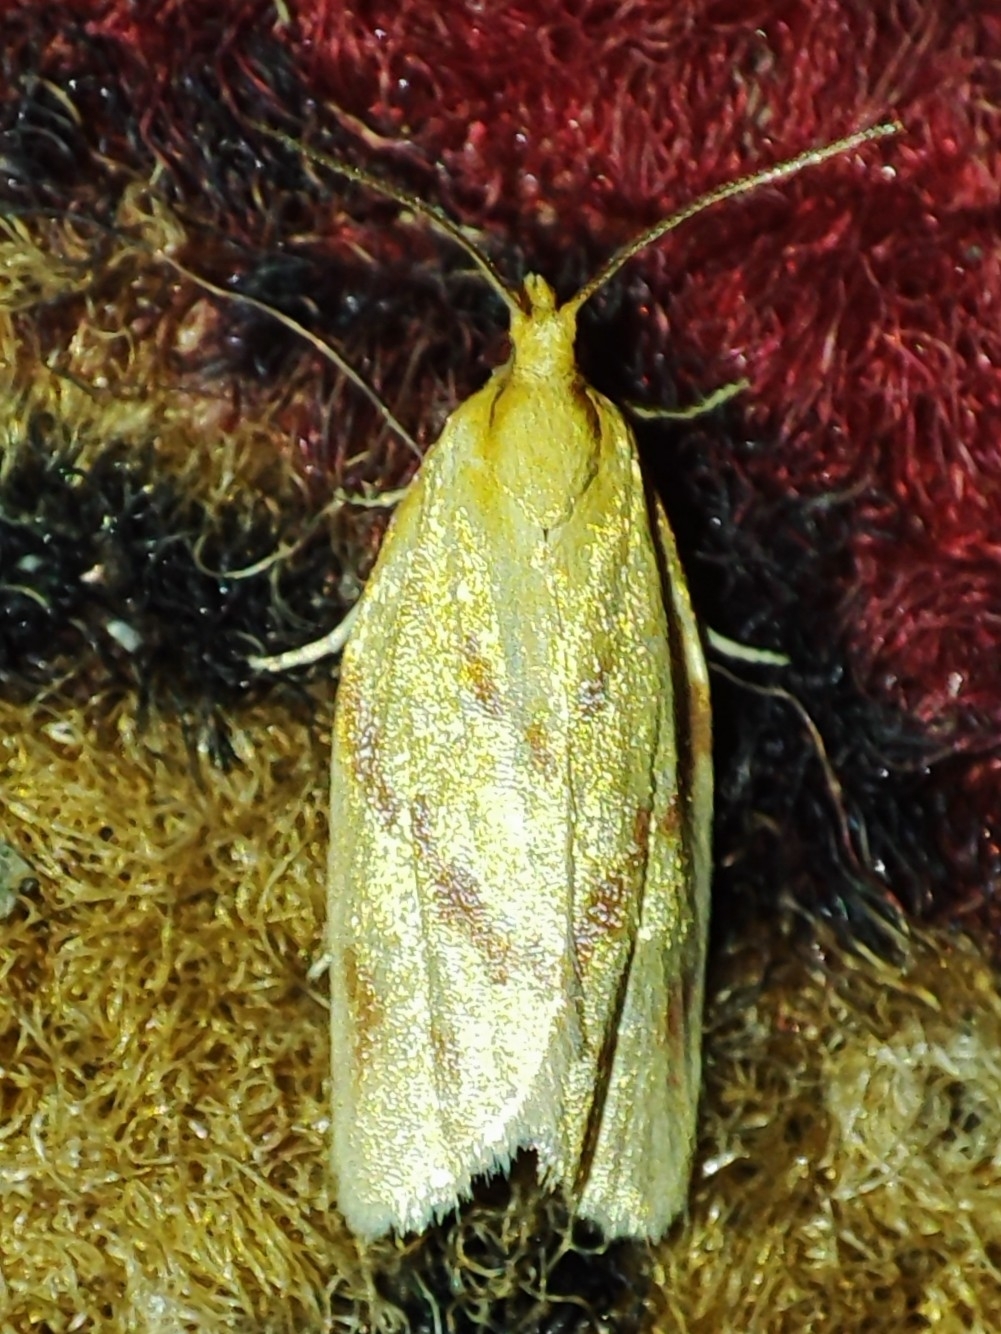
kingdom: Animalia
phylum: Arthropoda
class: Insecta
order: Lepidoptera
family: Tortricidae
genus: Clepsis
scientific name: Clepsis pallidana
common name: Sheep's-bit conch
